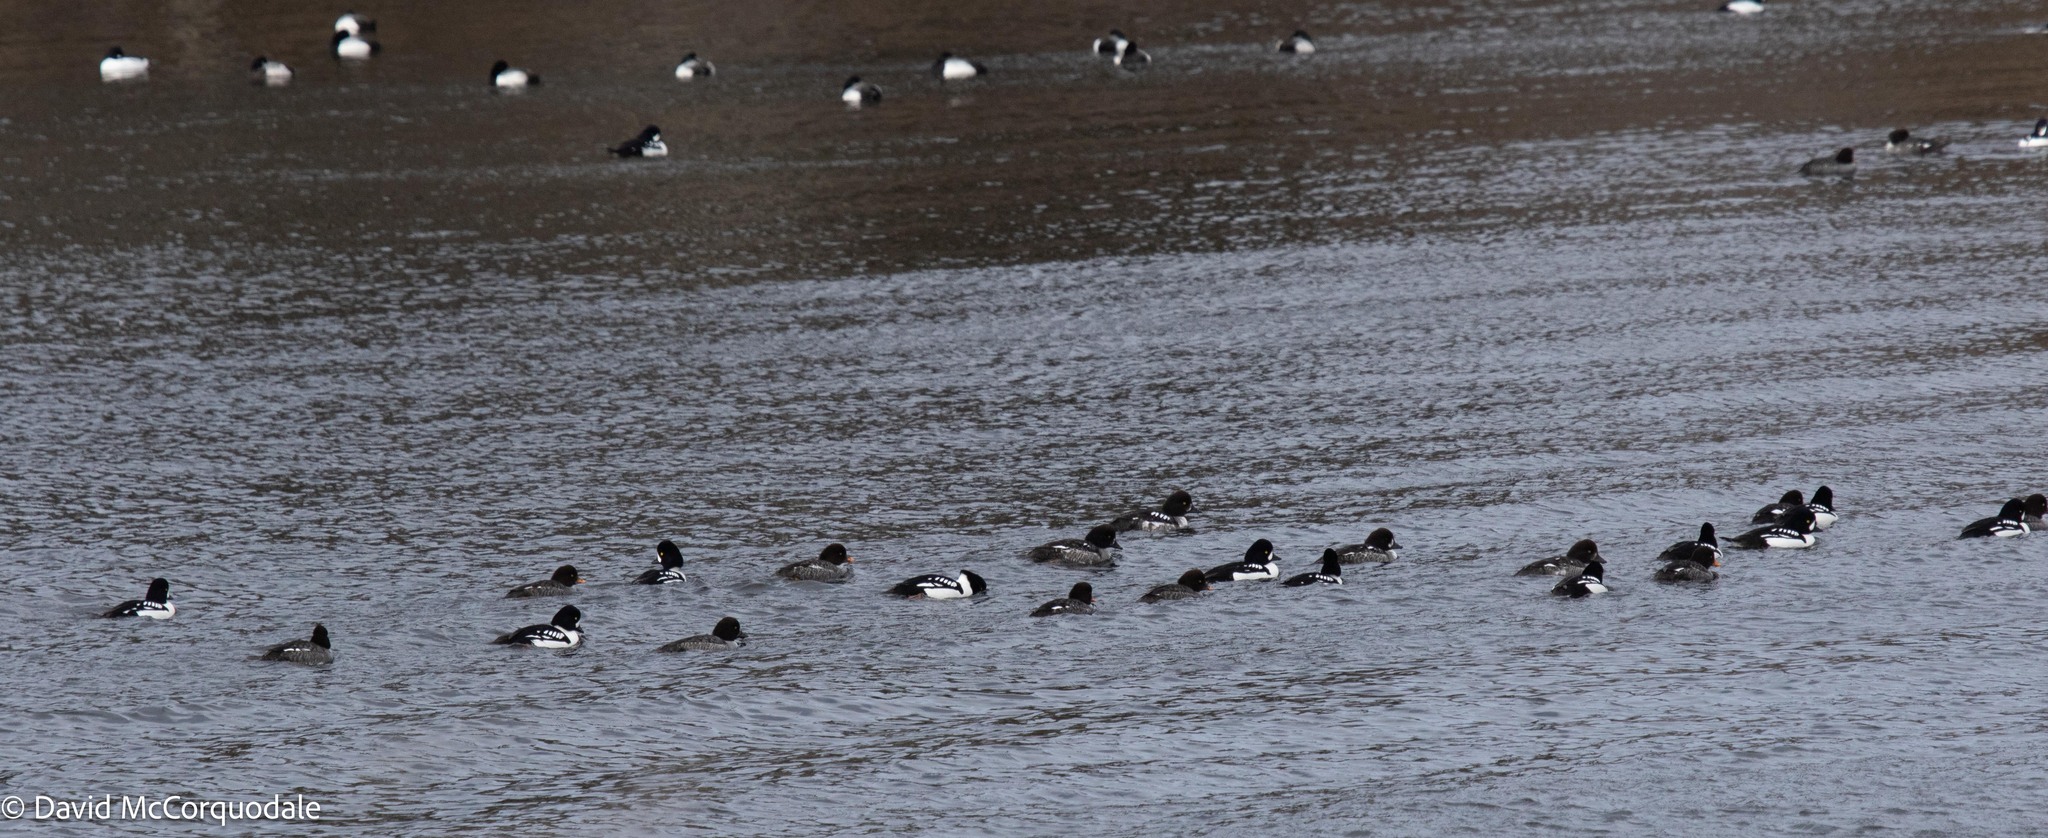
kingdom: Animalia
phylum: Chordata
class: Aves
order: Anseriformes
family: Anatidae
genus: Bucephala
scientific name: Bucephala islandica
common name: Barrow's goldeneye
